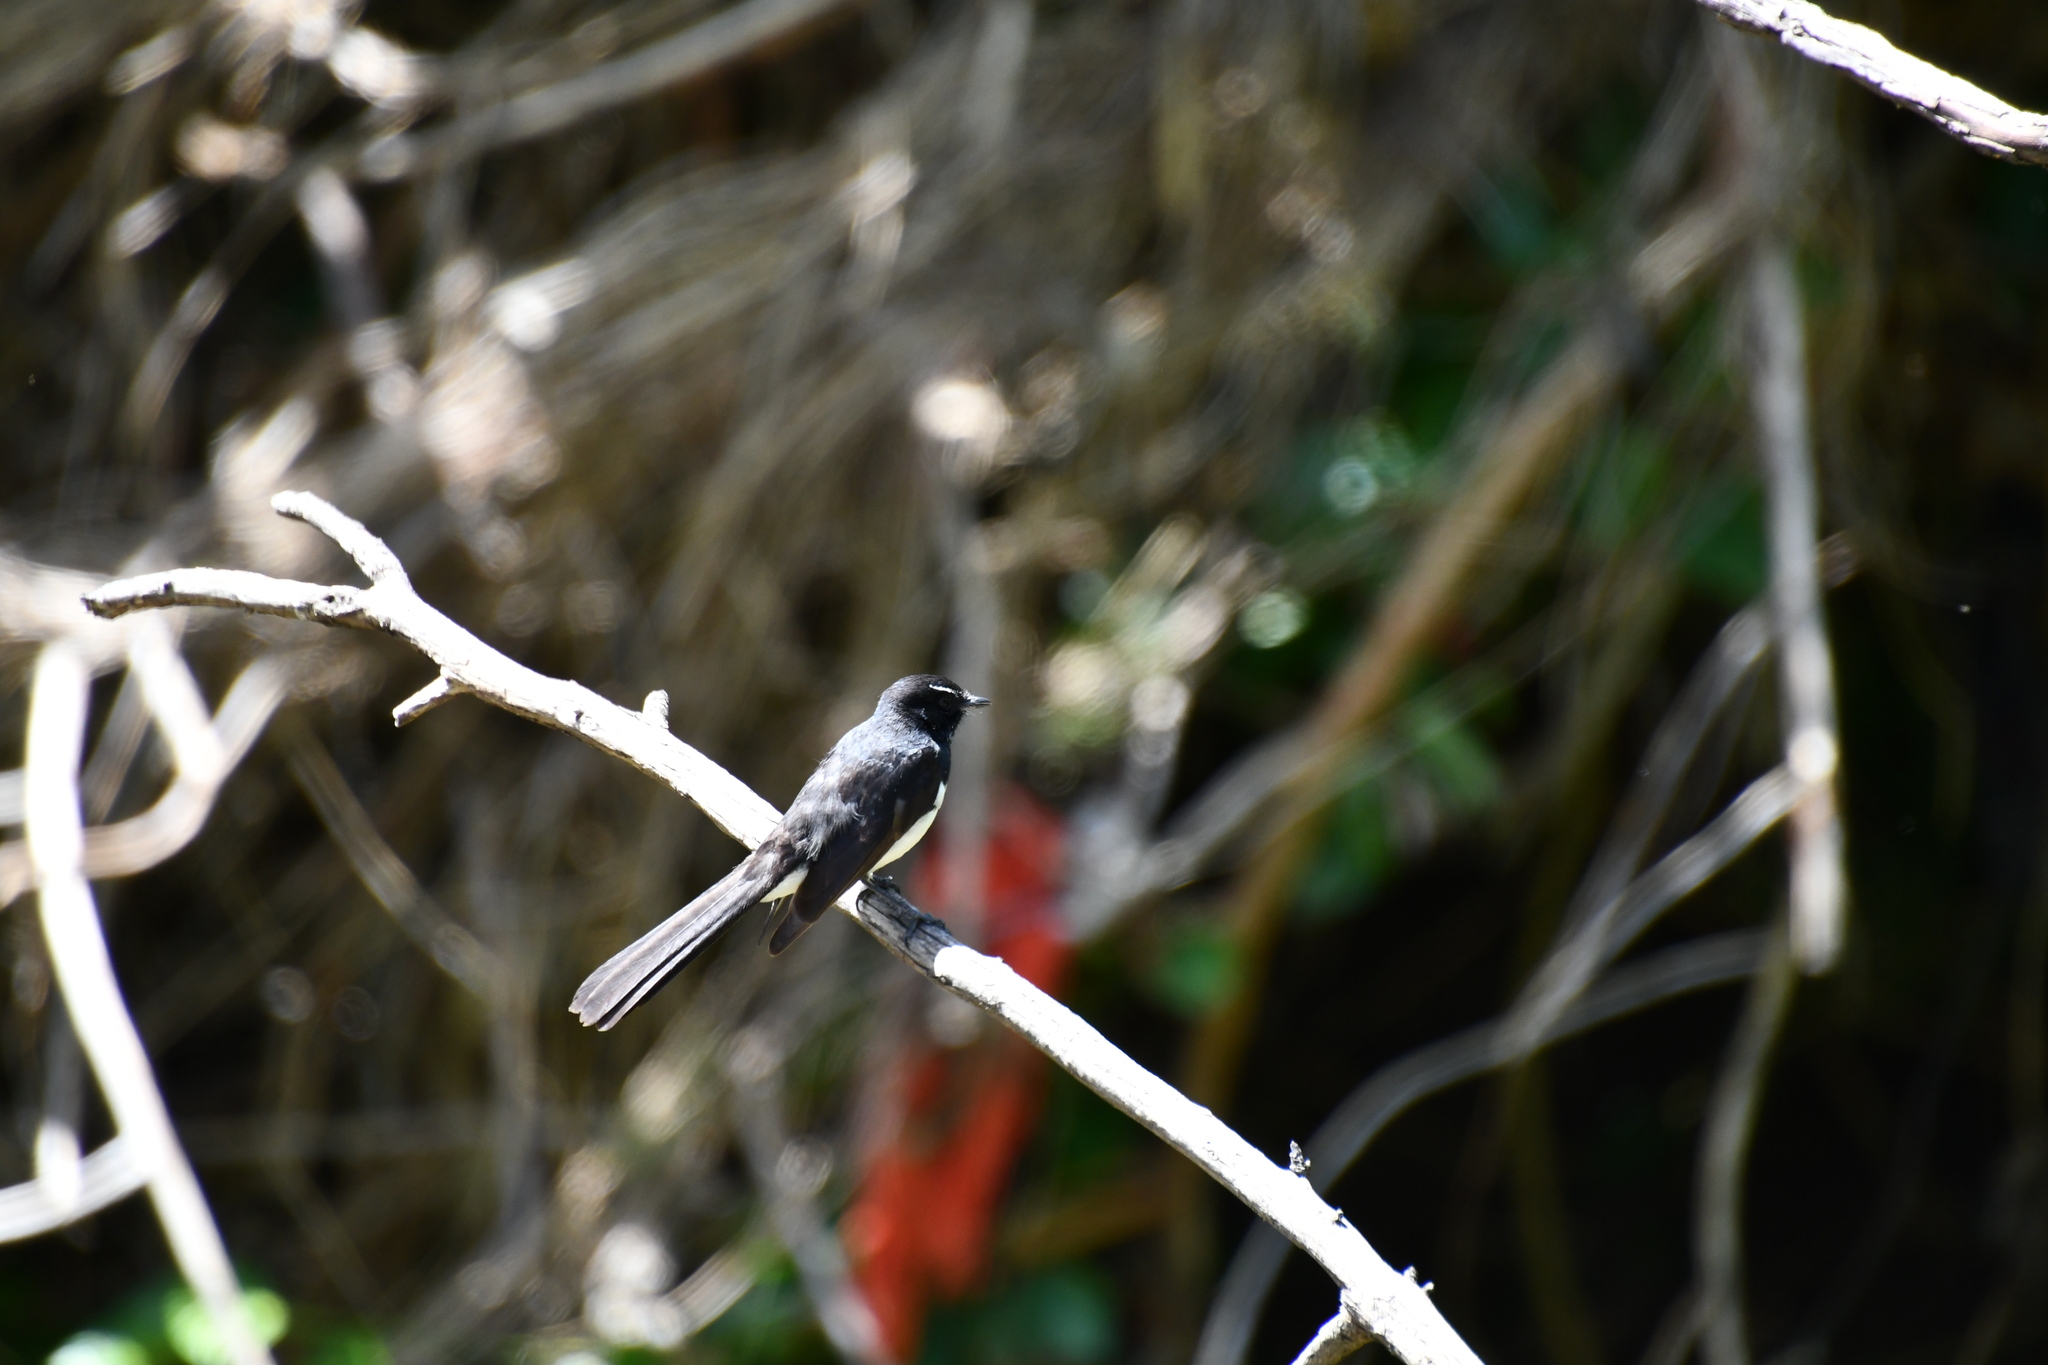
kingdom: Animalia
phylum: Chordata
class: Aves
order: Passeriformes
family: Rhipiduridae
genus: Rhipidura
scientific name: Rhipidura leucophrys
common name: Willie wagtail
